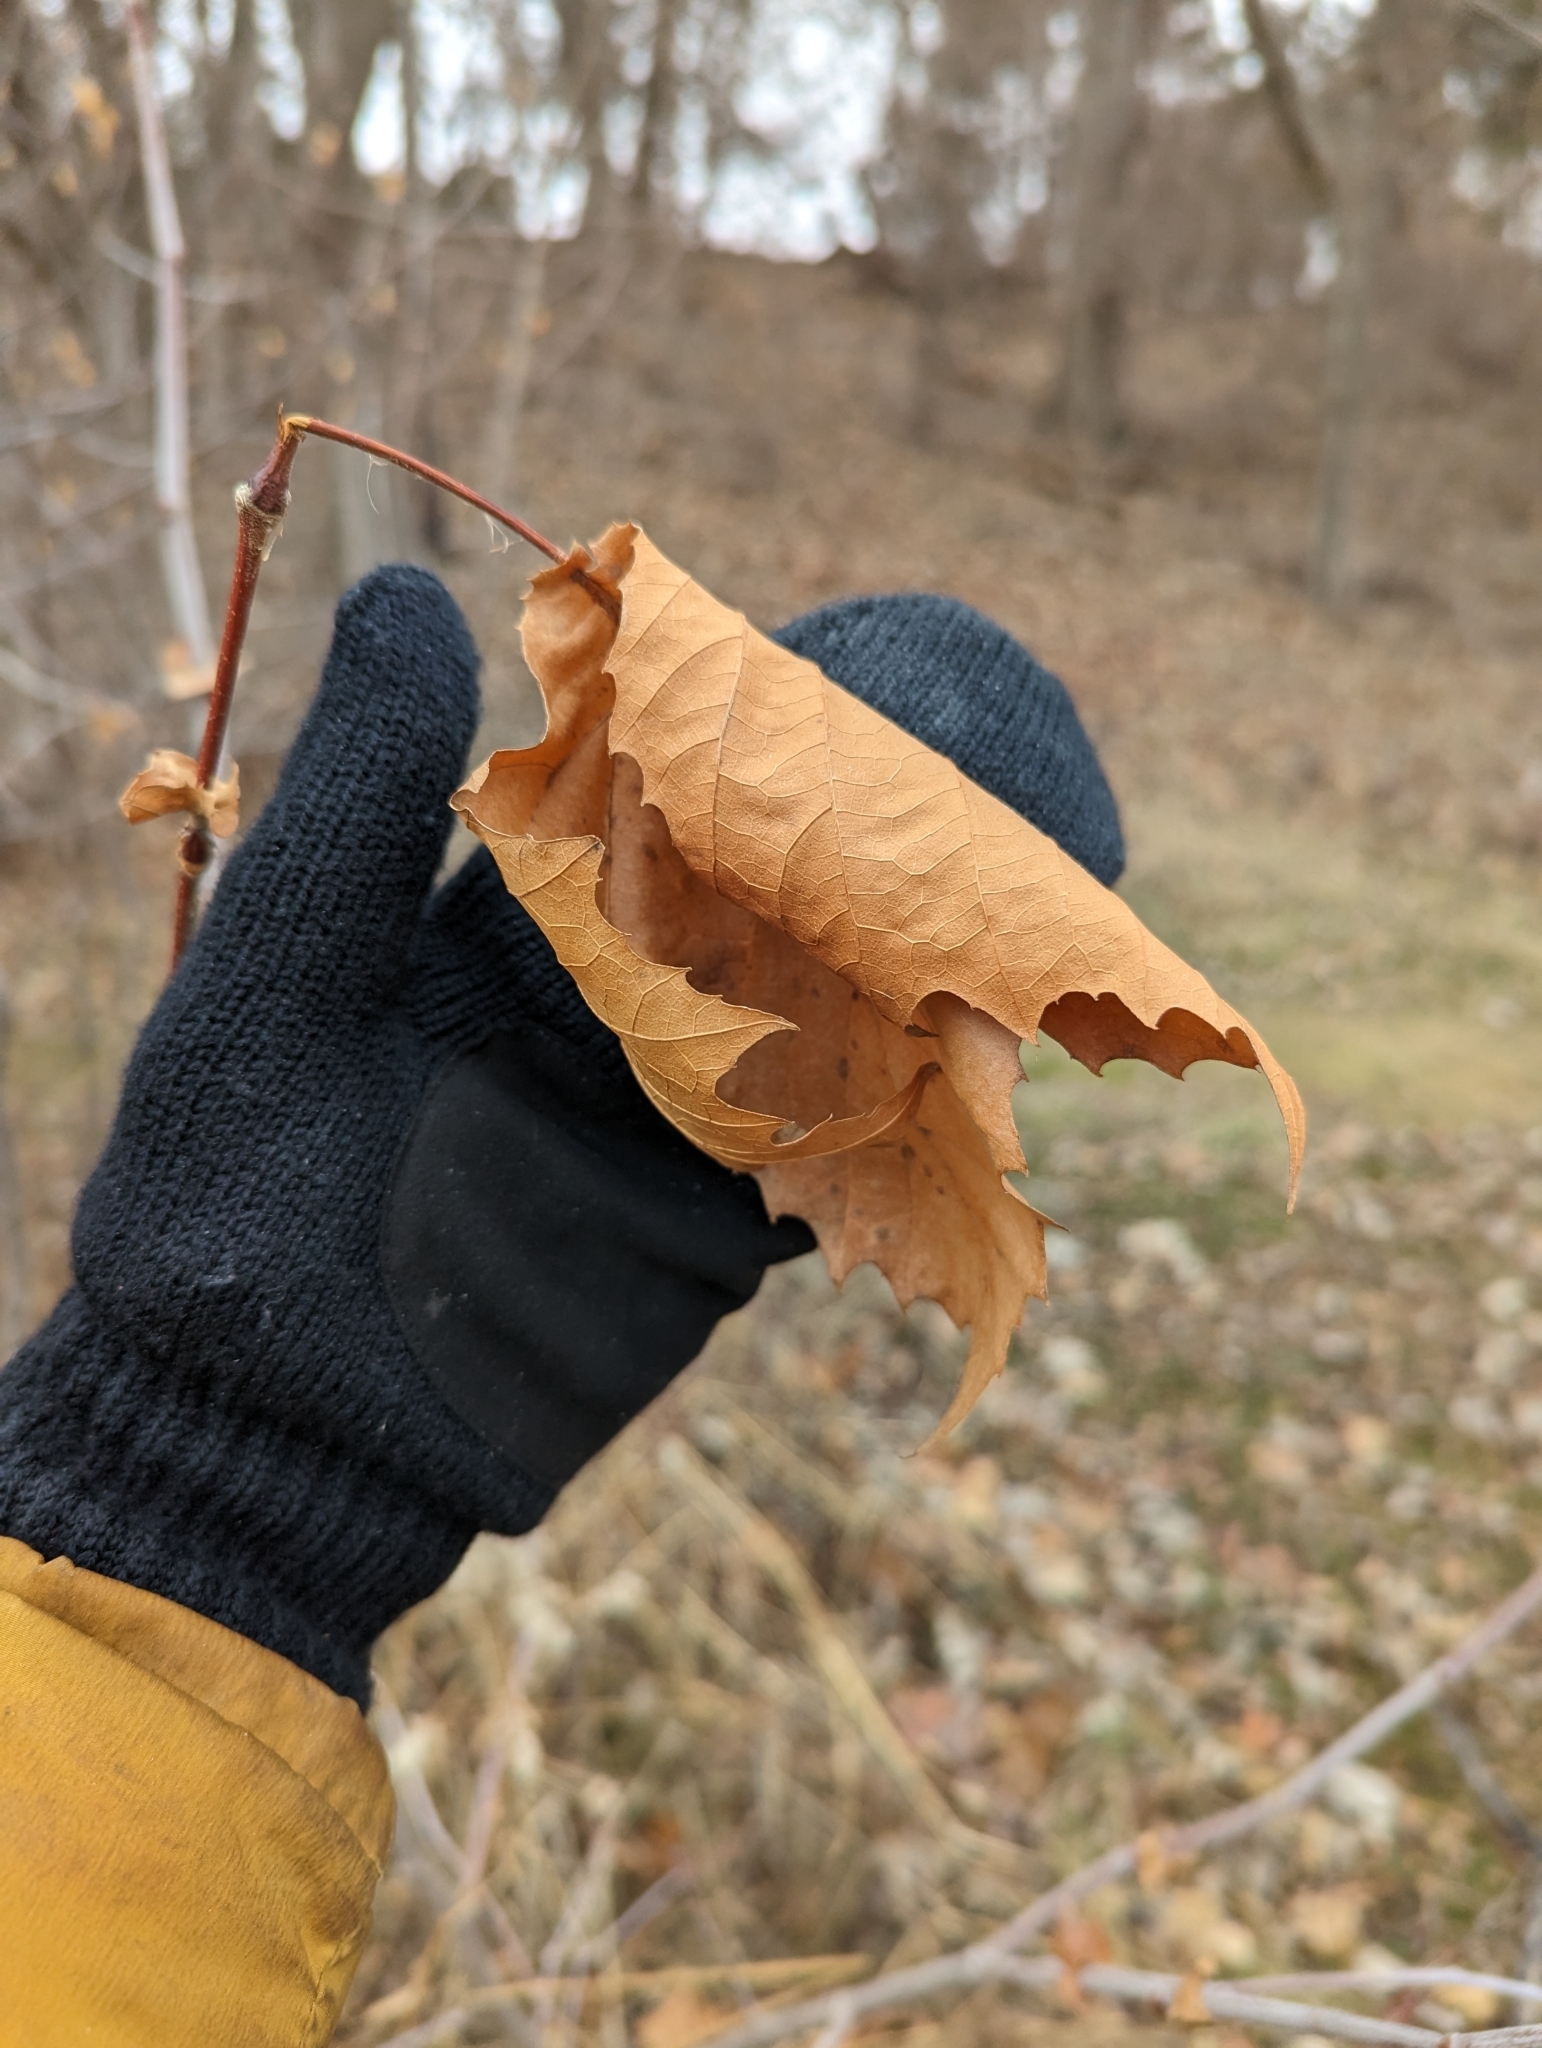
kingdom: Plantae
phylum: Tracheophyta
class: Magnoliopsida
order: Proteales
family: Platanaceae
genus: Platanus
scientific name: Platanus occidentalis
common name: American sycamore
